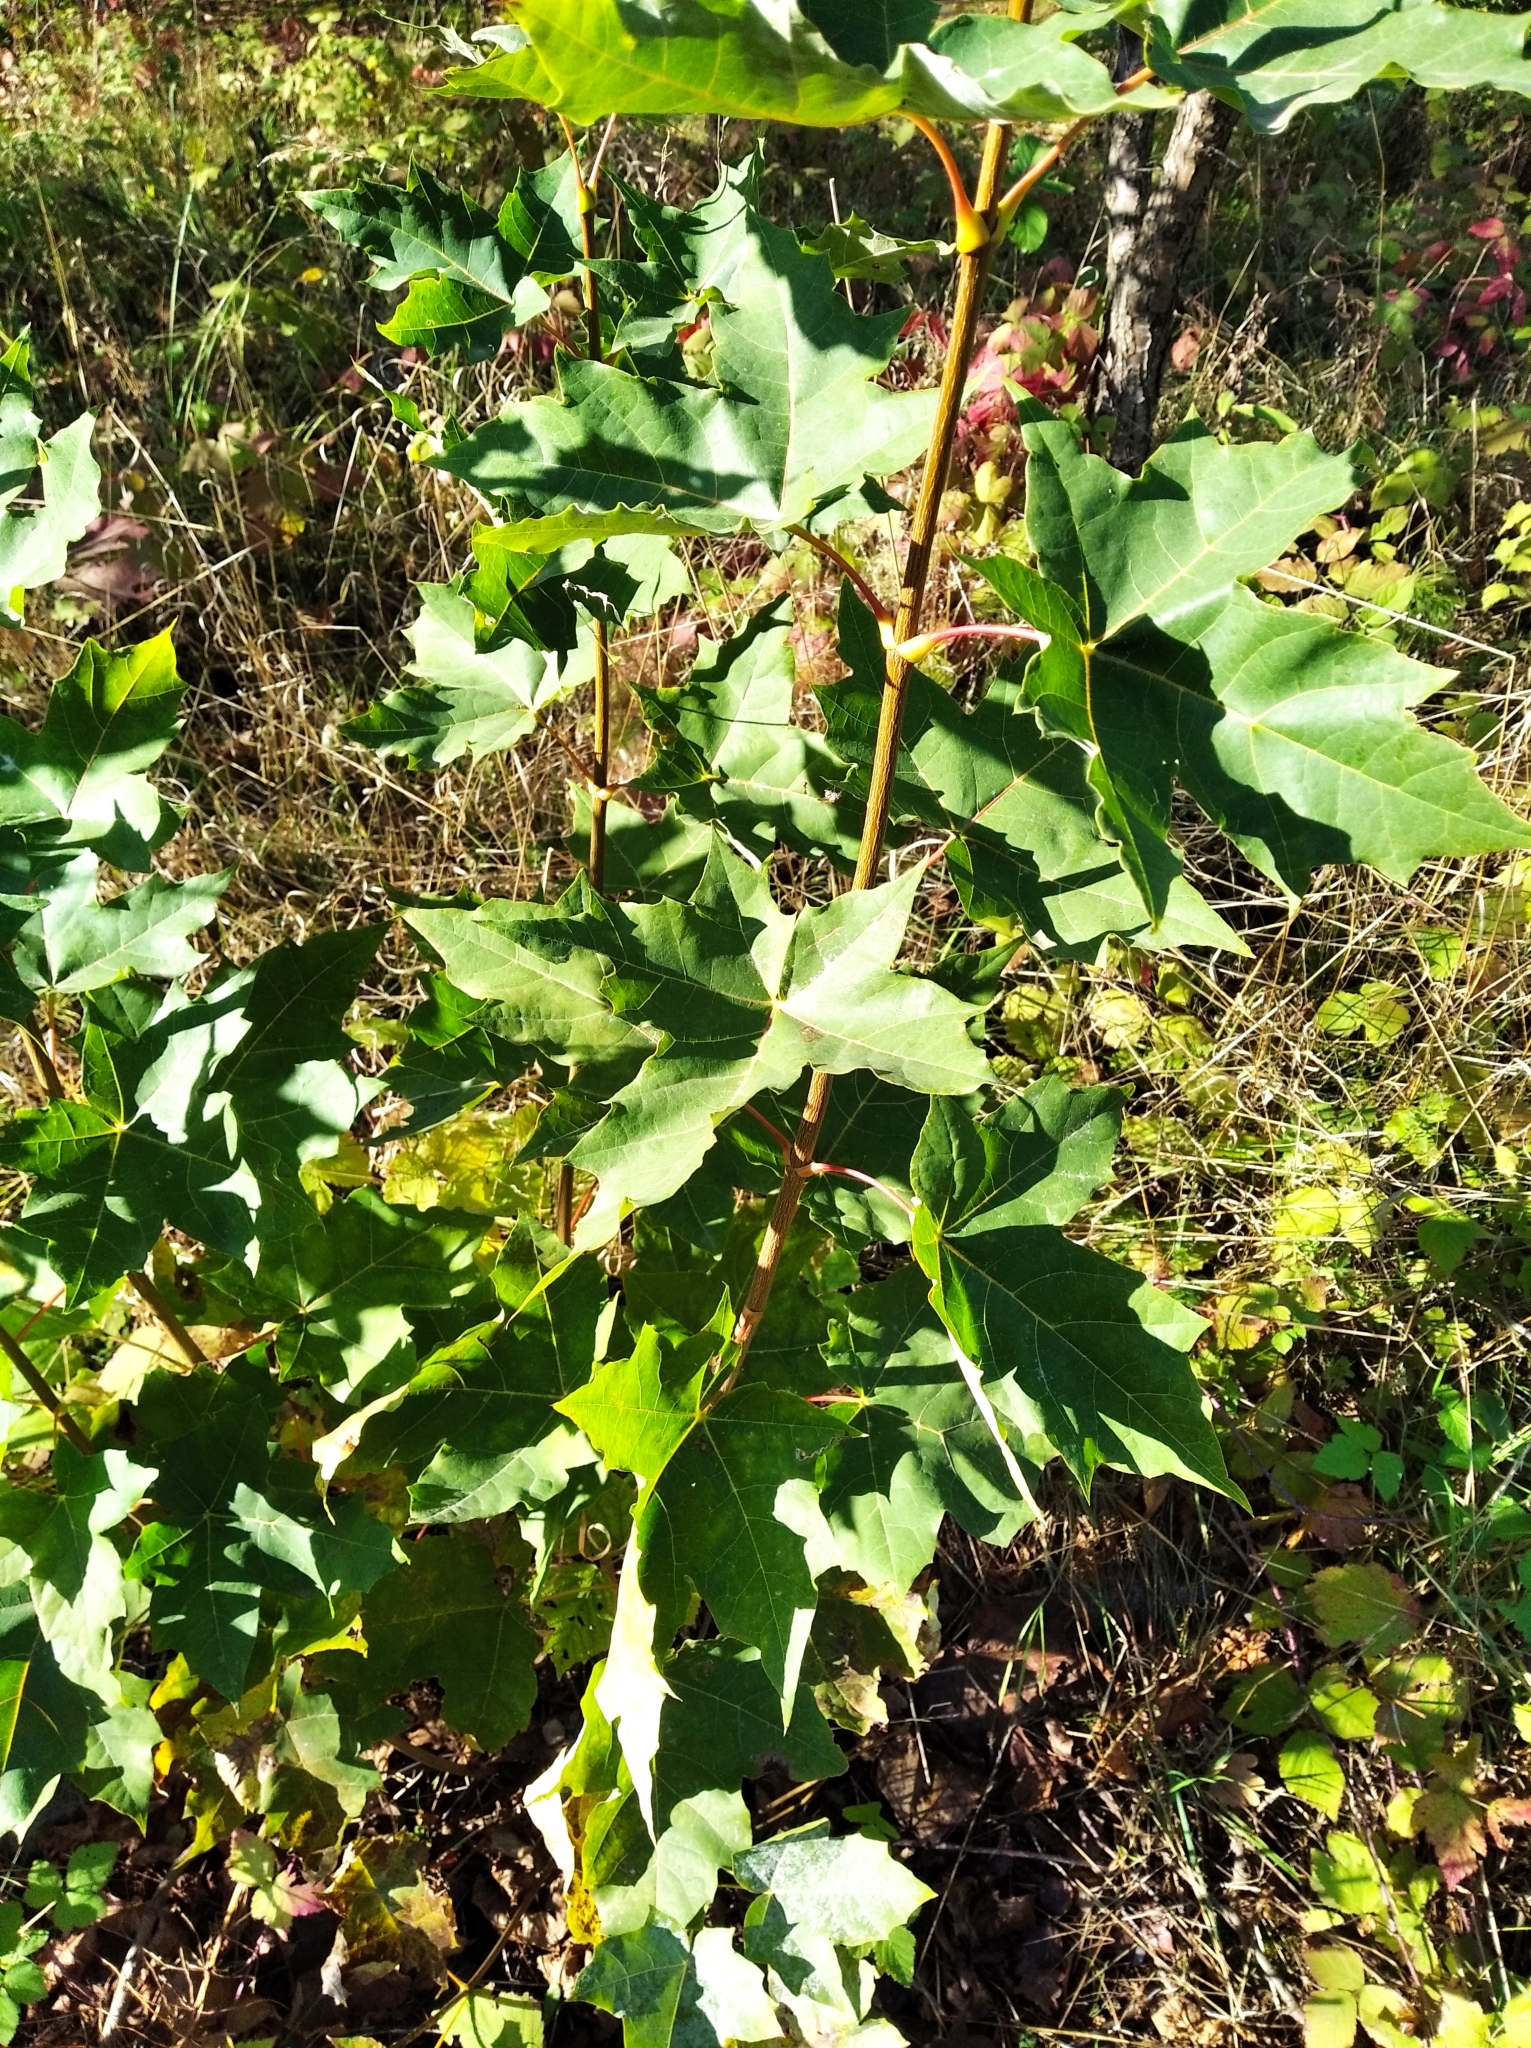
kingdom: Plantae
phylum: Tracheophyta
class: Magnoliopsida
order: Sapindales
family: Sapindaceae
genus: Acer
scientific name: Acer platanoides
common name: Norway maple
